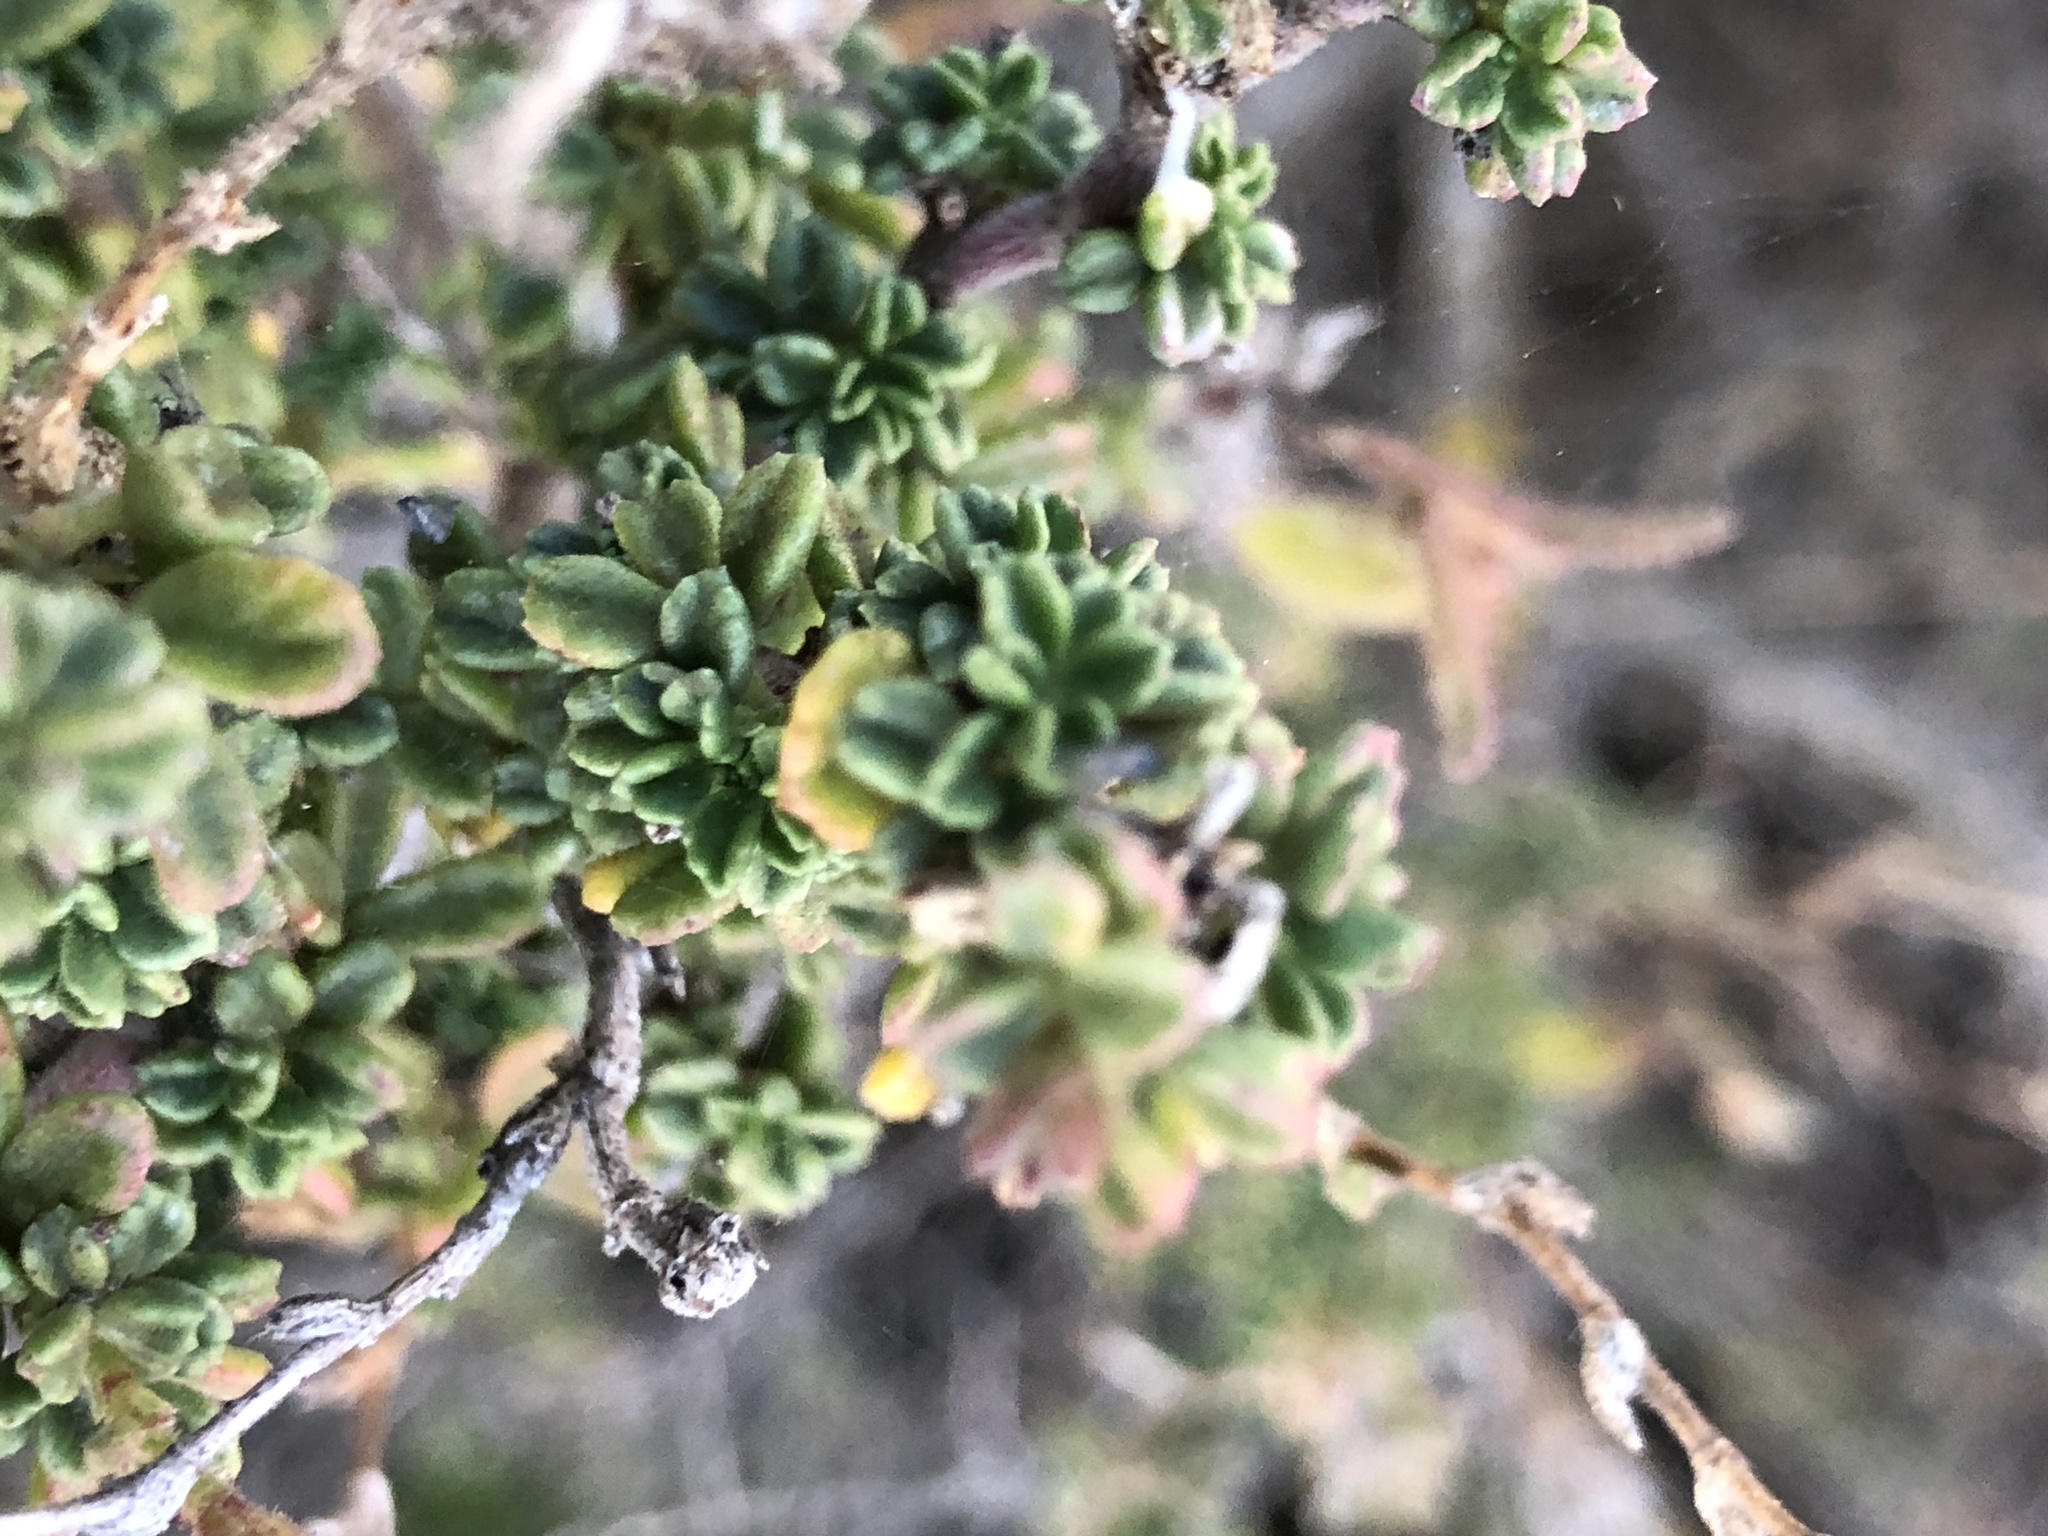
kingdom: Plantae
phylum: Tracheophyta
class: Magnoliopsida
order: Fabales
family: Fabaceae
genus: Ononis
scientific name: Ononis tridentata
